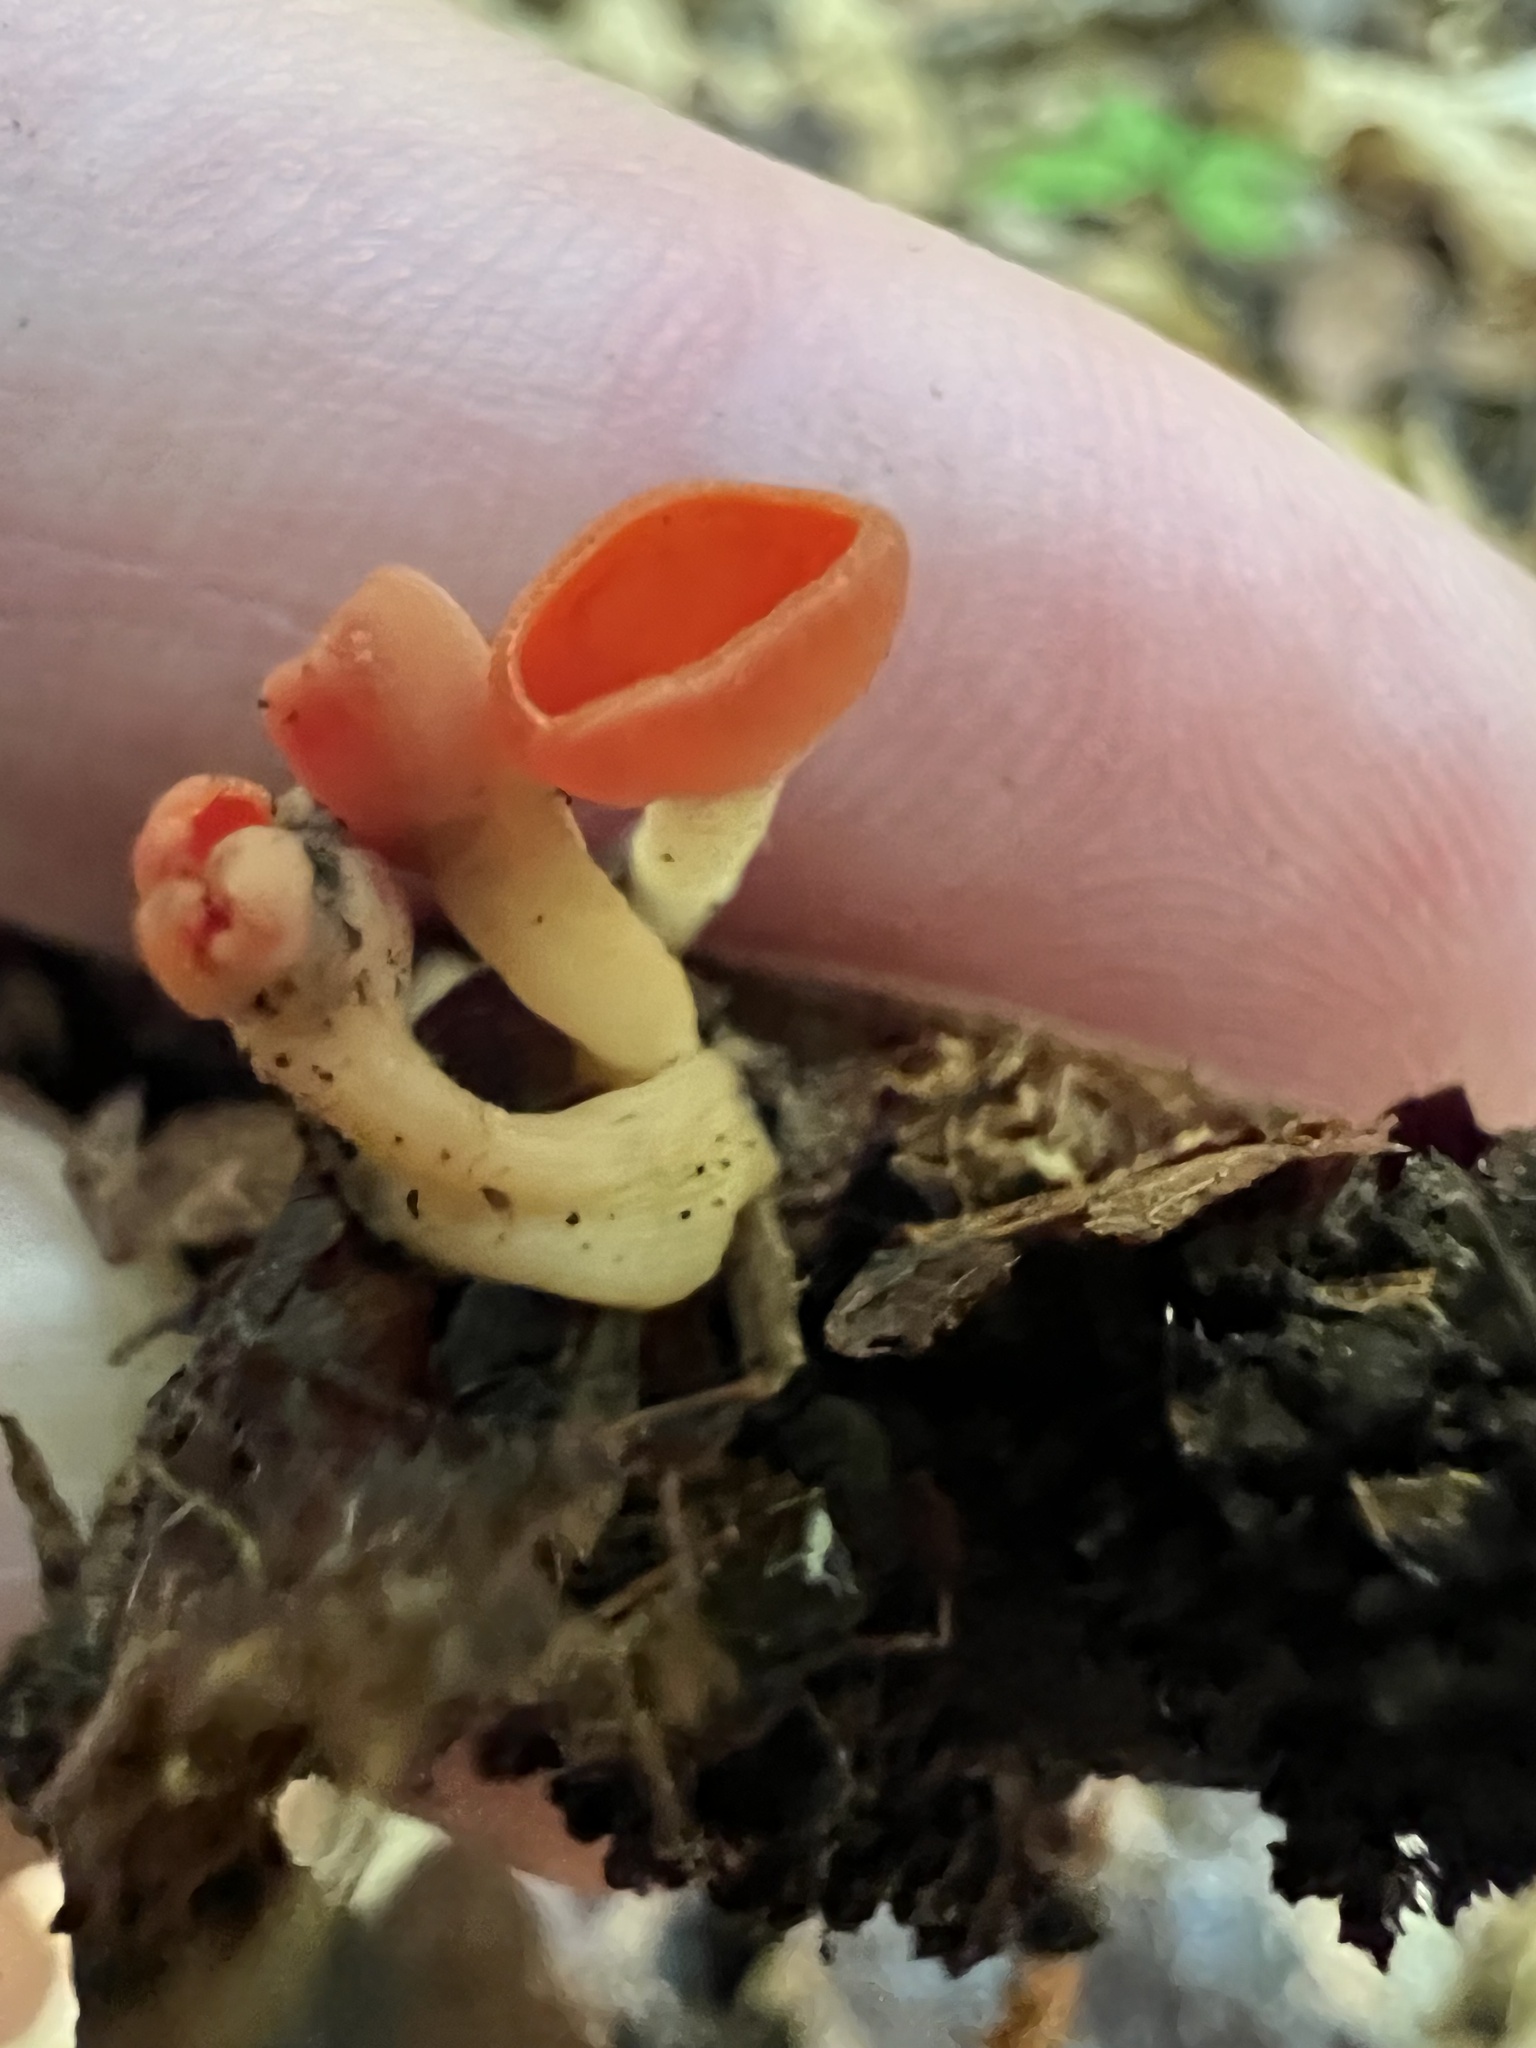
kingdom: Fungi
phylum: Ascomycota
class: Pezizomycetes
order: Pezizales
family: Sarcoscyphaceae
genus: Sarcoscypha
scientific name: Sarcoscypha occidentalis
